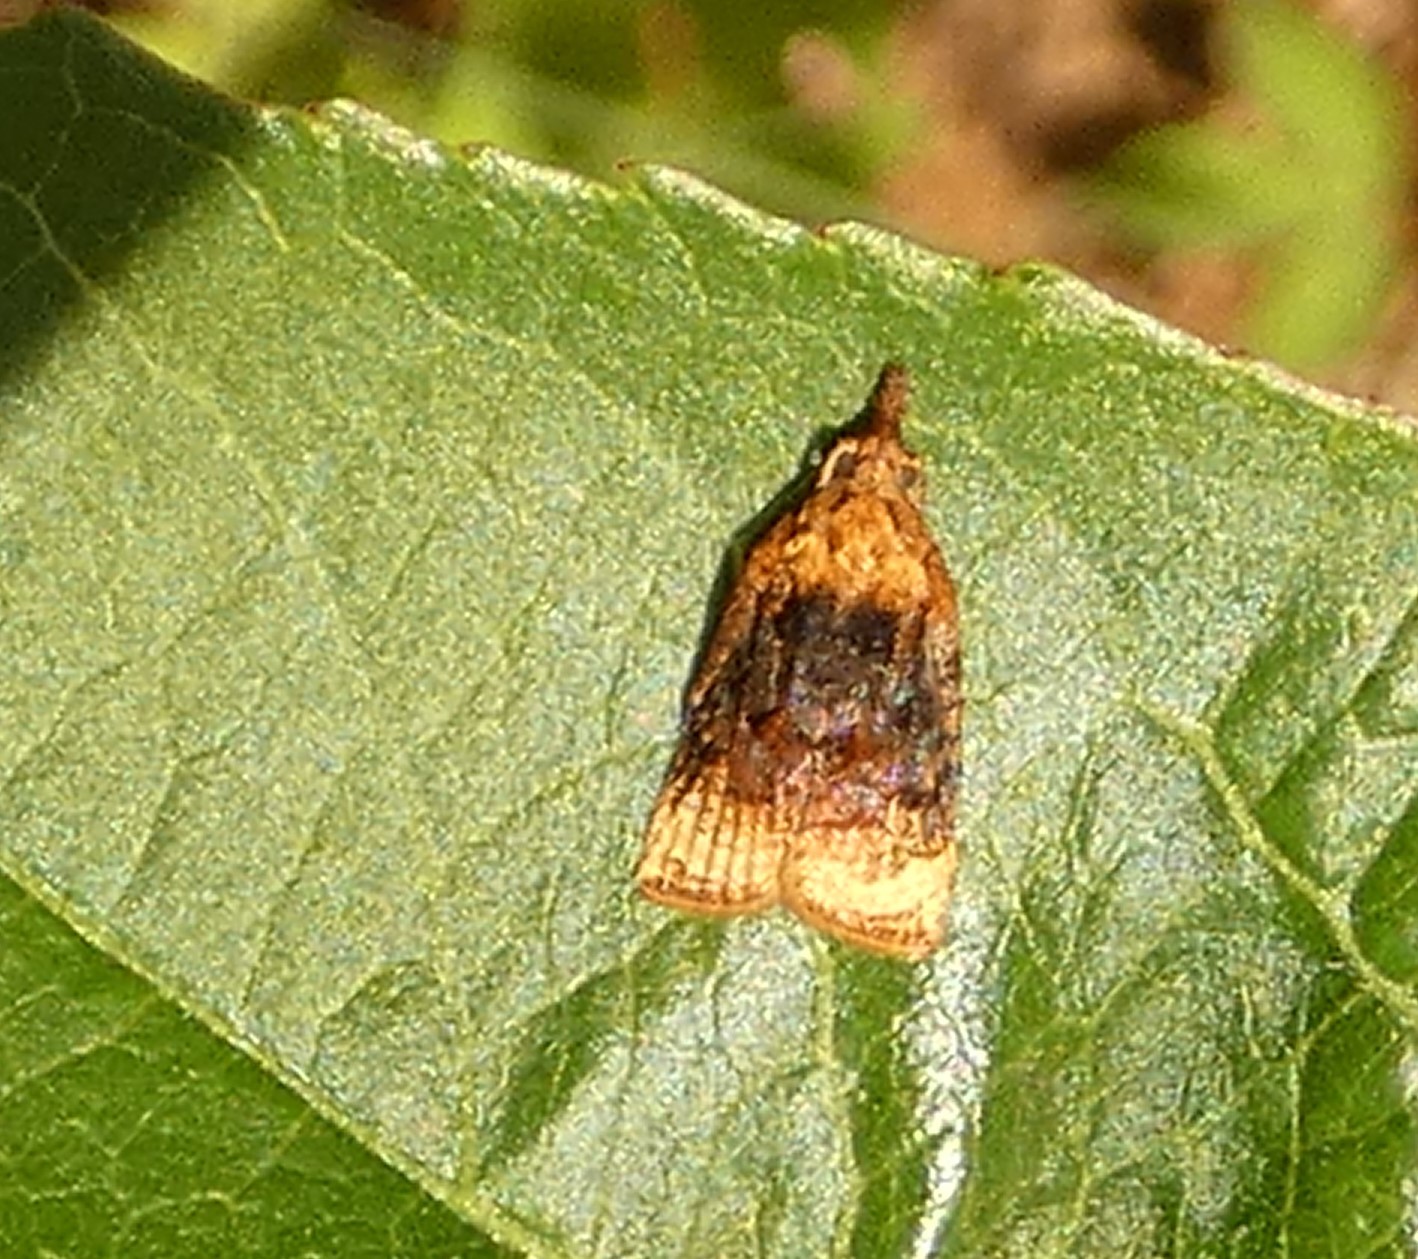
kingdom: Animalia
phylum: Arthropoda
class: Insecta
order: Lepidoptera
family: Tortricidae
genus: Platynota
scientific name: Platynota flavedana
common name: Black-shaded platynota moth
